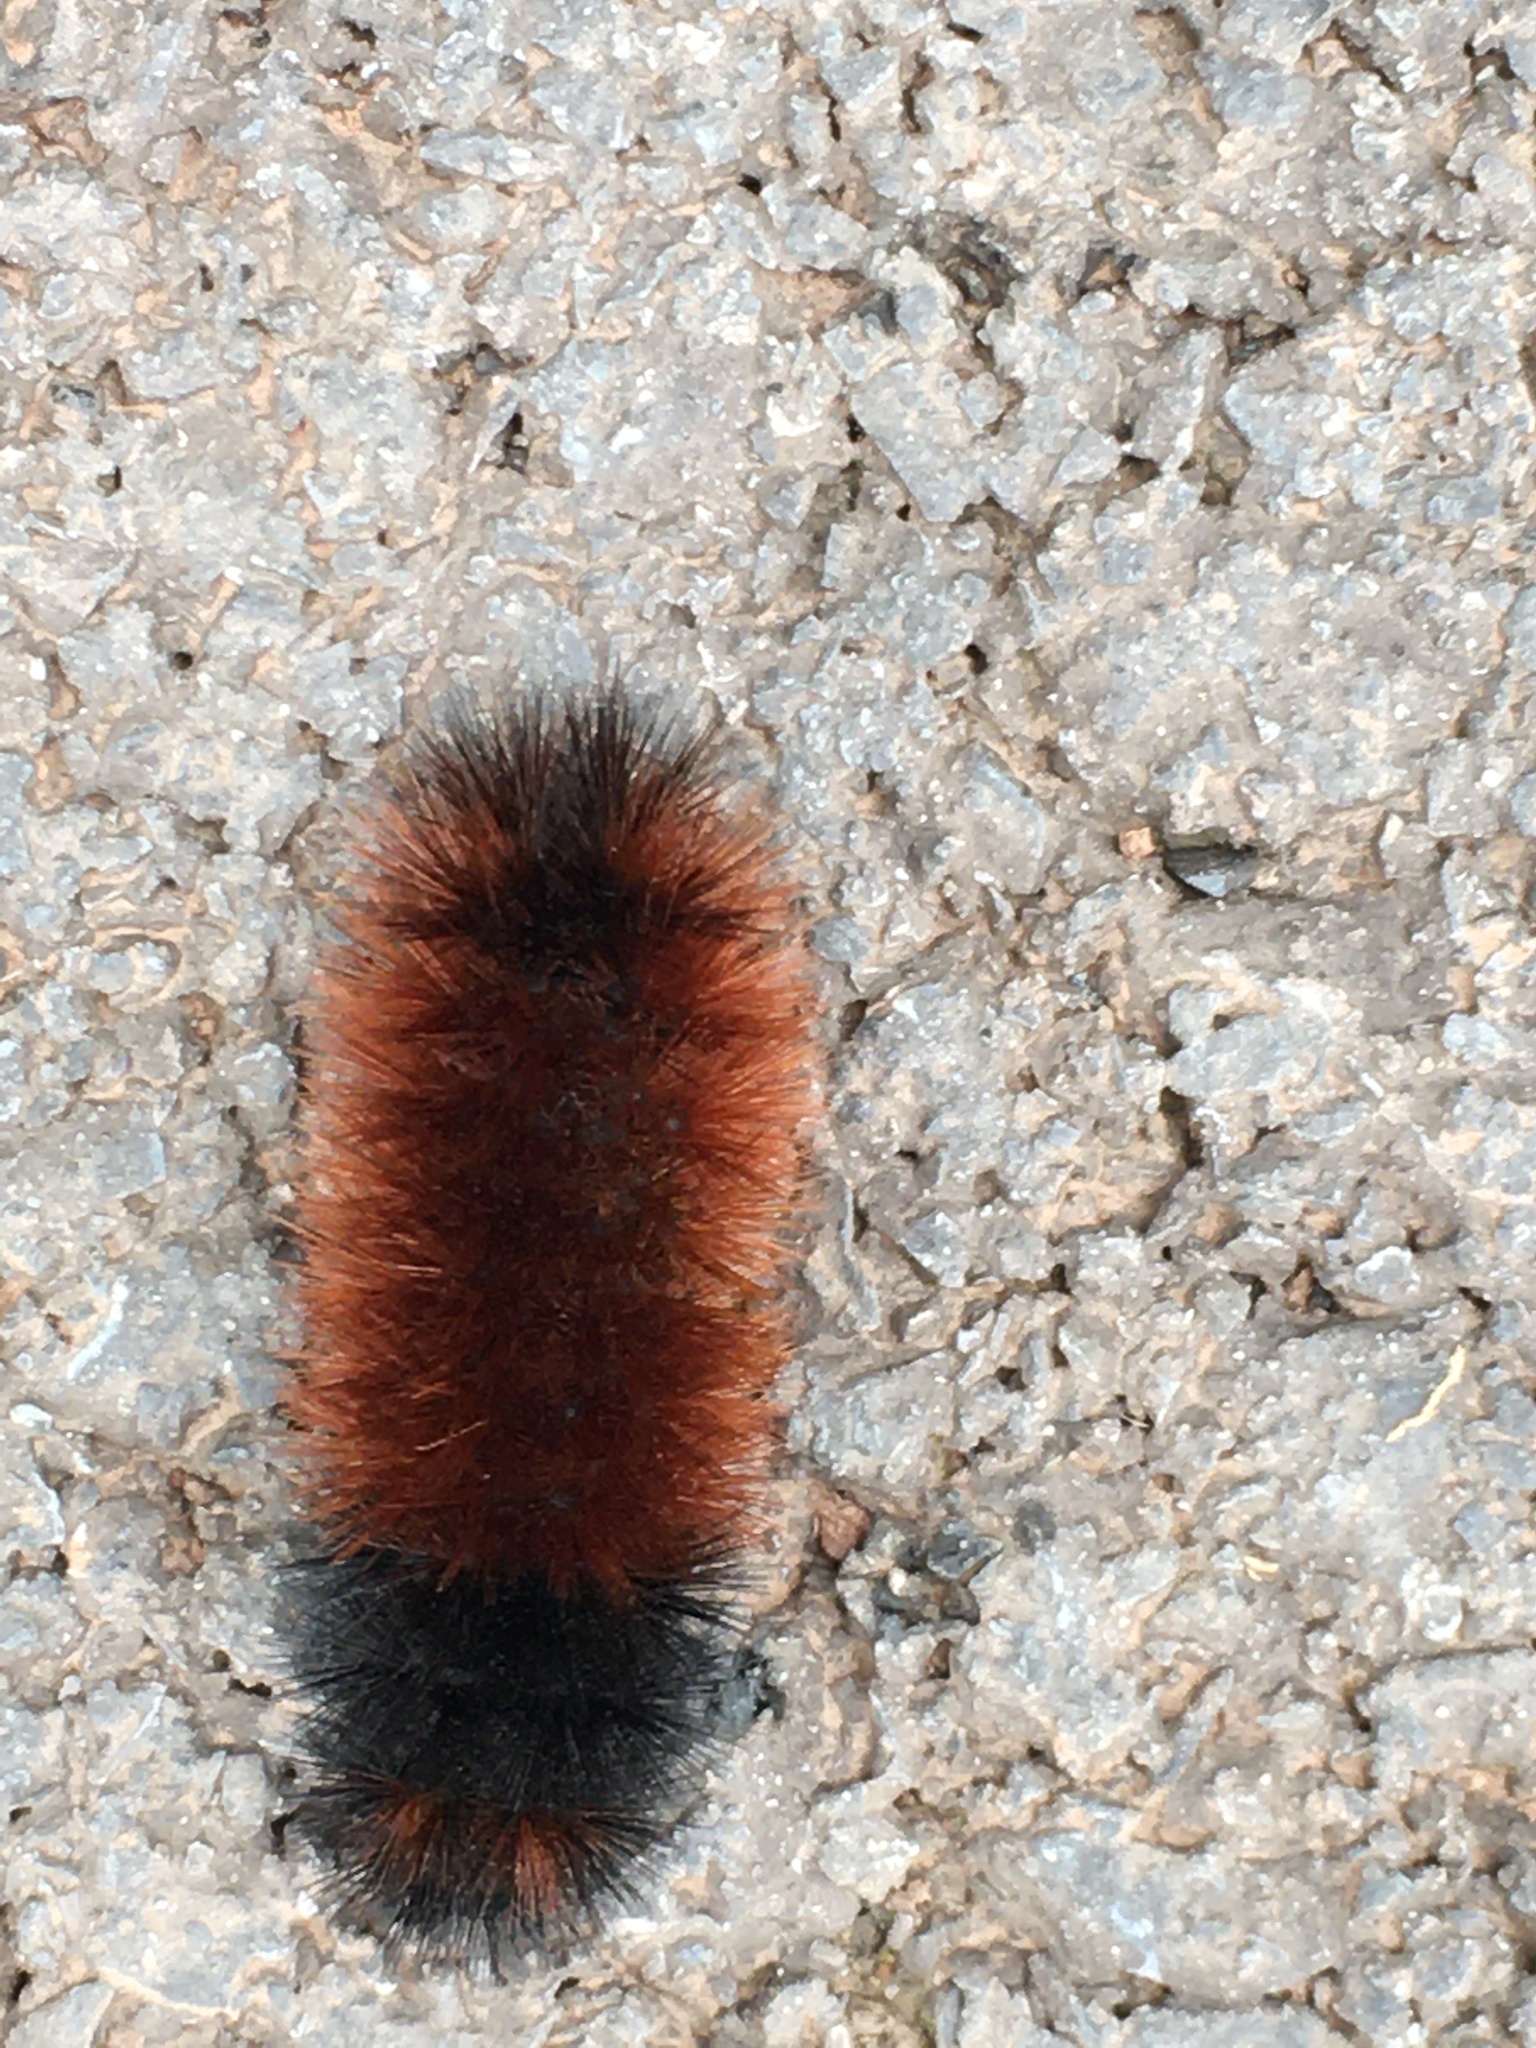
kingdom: Animalia
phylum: Arthropoda
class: Insecta
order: Lepidoptera
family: Erebidae
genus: Pyrrharctia
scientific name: Pyrrharctia isabella
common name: Isabella tiger moth
